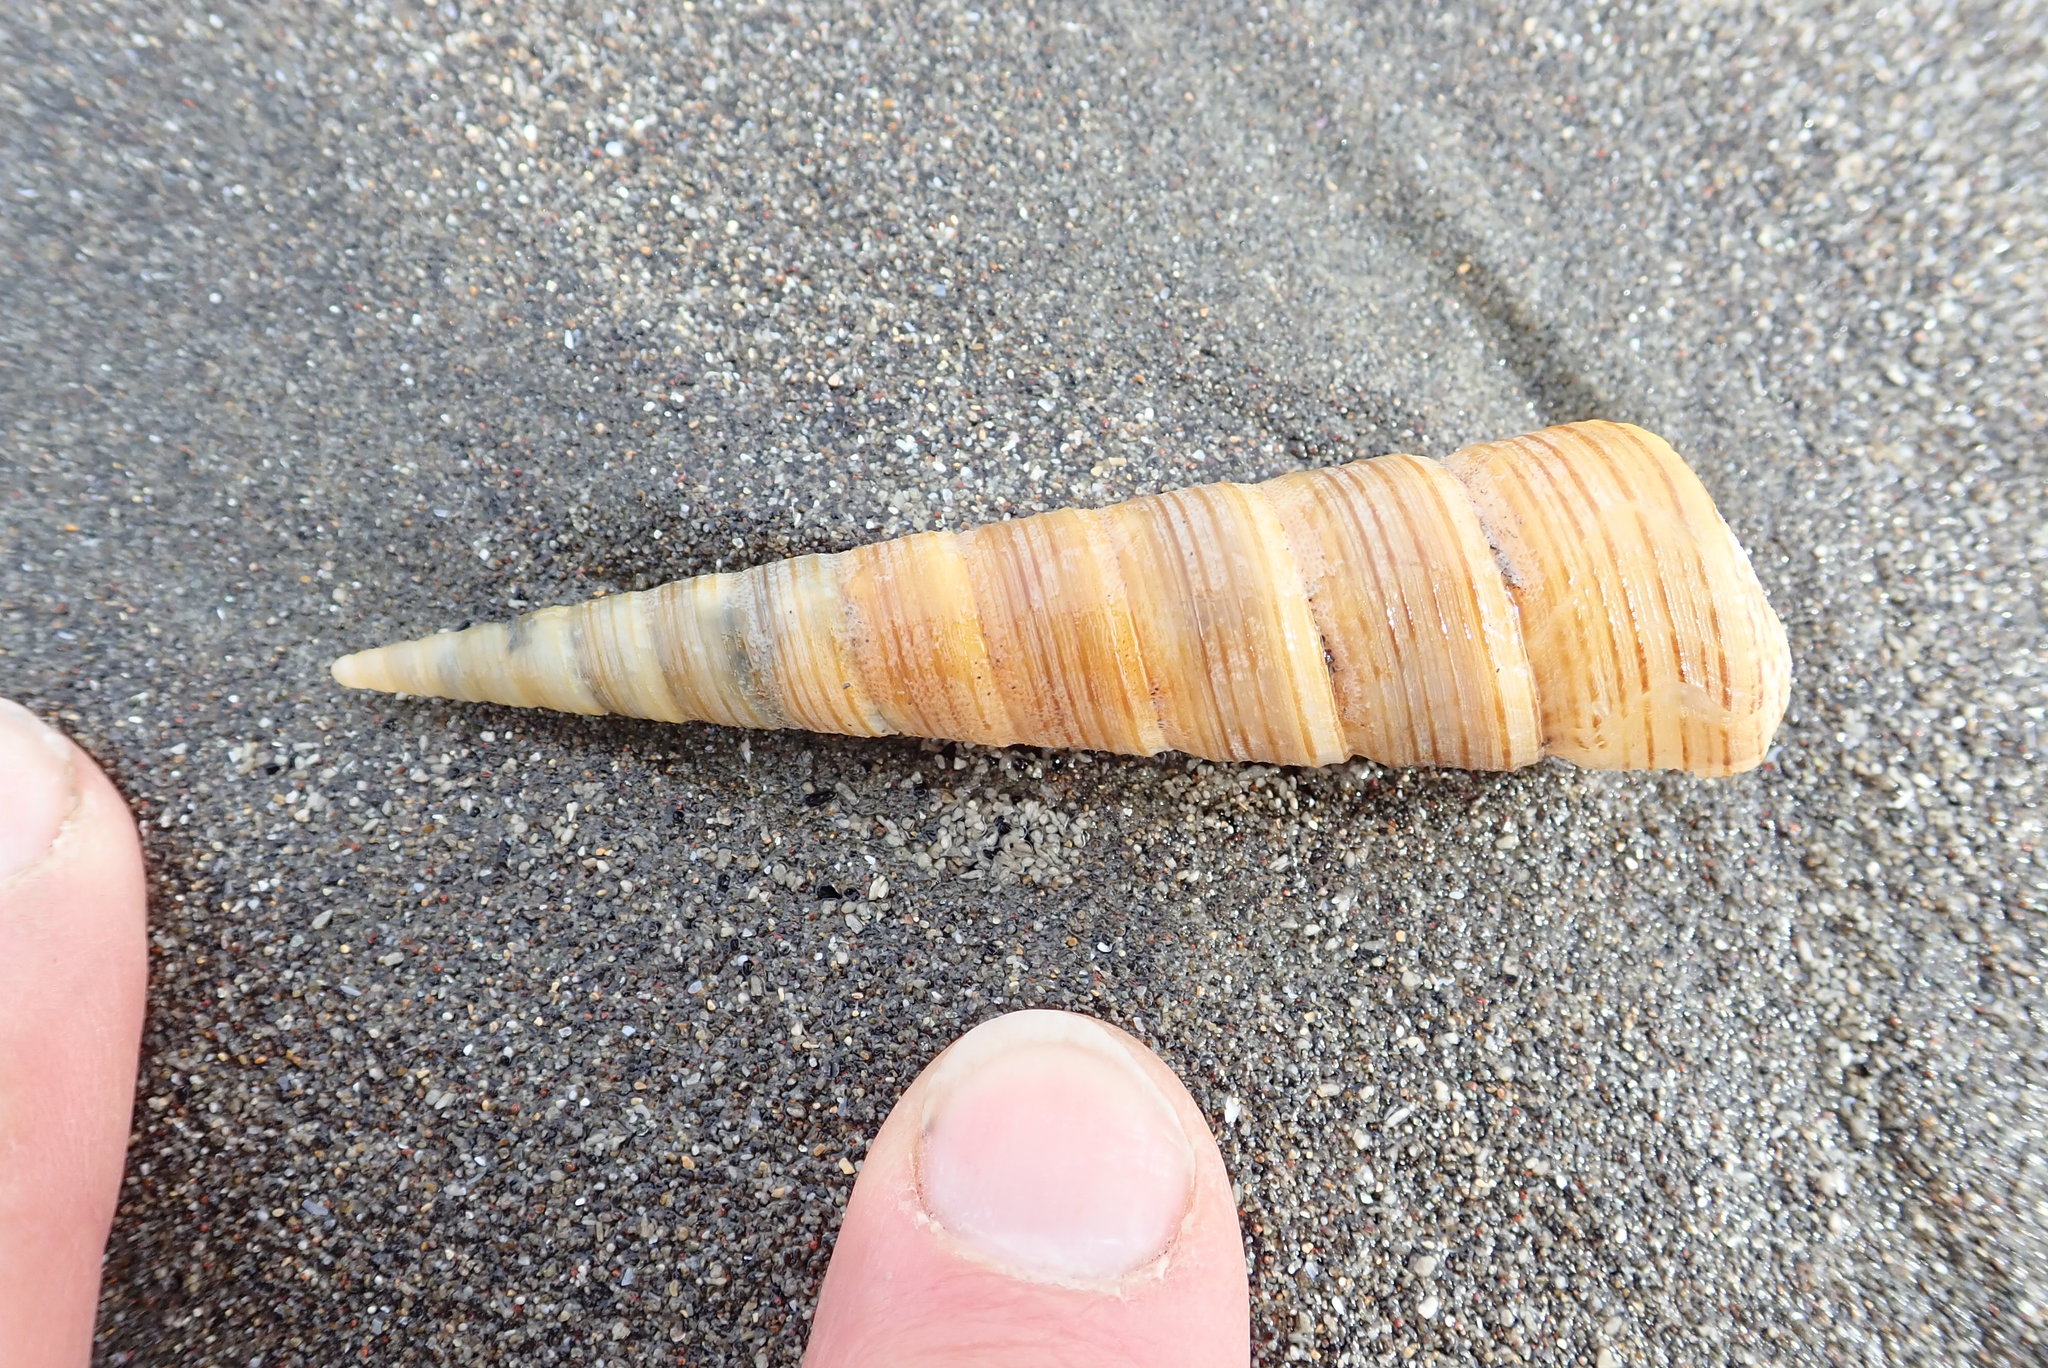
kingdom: Animalia
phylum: Mollusca
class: Gastropoda
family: Turritellidae
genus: Zeacolpus
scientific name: Zeacolpus vittatus
